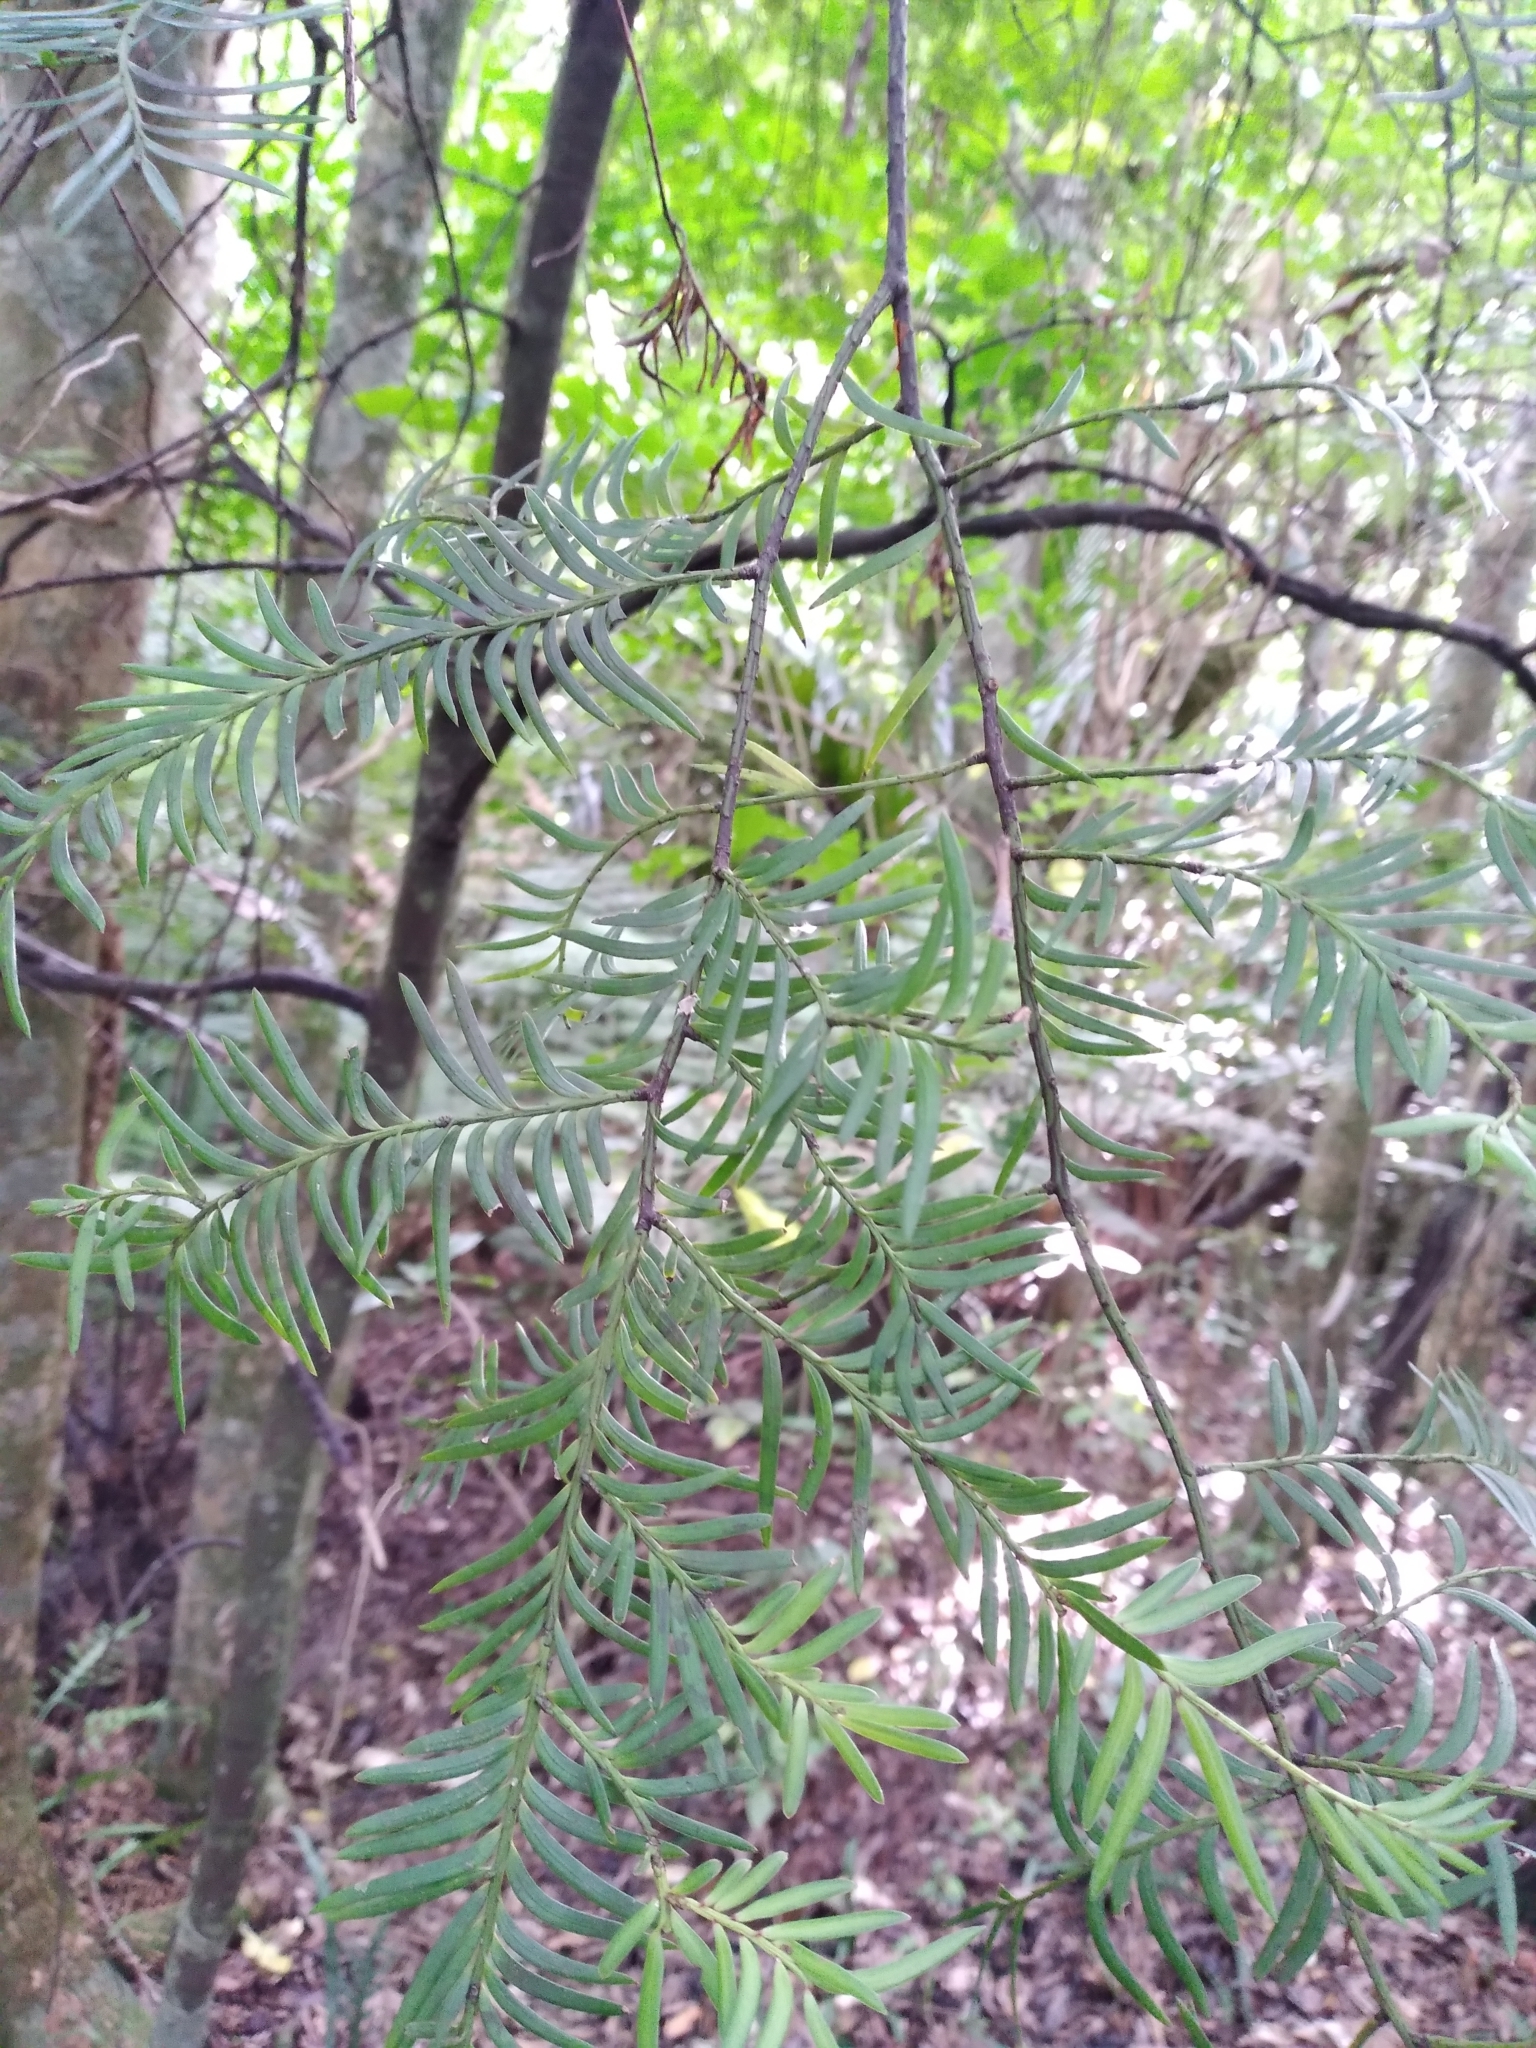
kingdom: Plantae
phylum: Tracheophyta
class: Pinopsida
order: Pinales
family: Podocarpaceae
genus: Prumnopitys
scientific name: Prumnopitys ferruginea
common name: Brown pine
